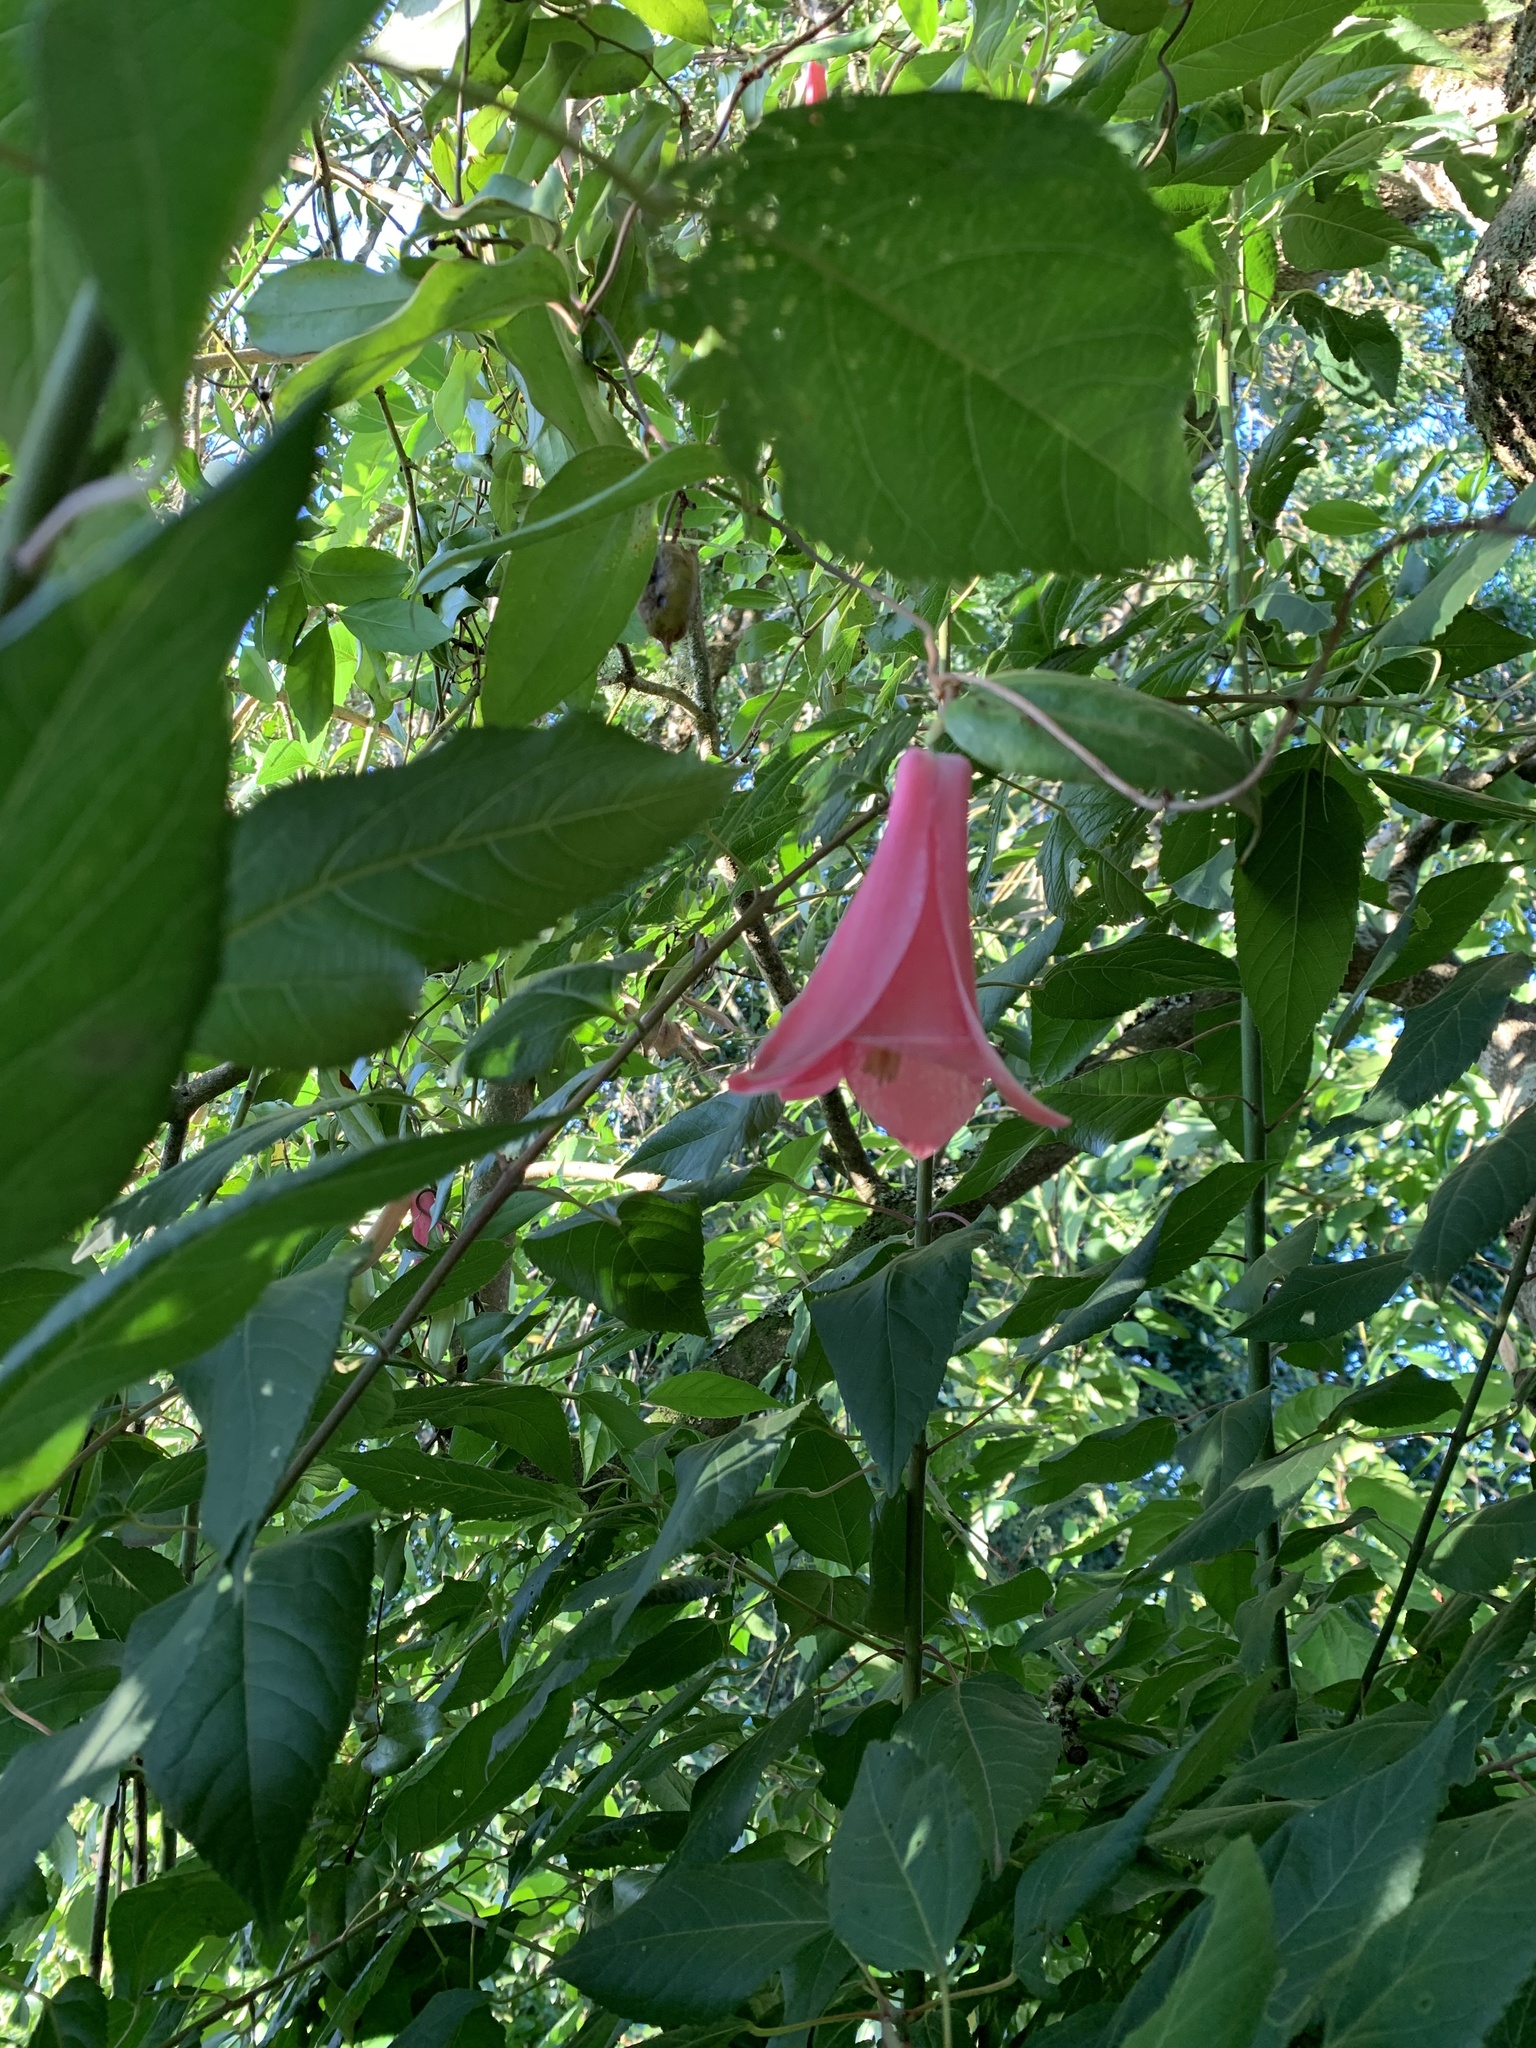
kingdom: Plantae
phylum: Tracheophyta
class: Liliopsida
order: Liliales
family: Philesiaceae
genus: Lapageria
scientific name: Lapageria rosea
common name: Chilean-bellflower
